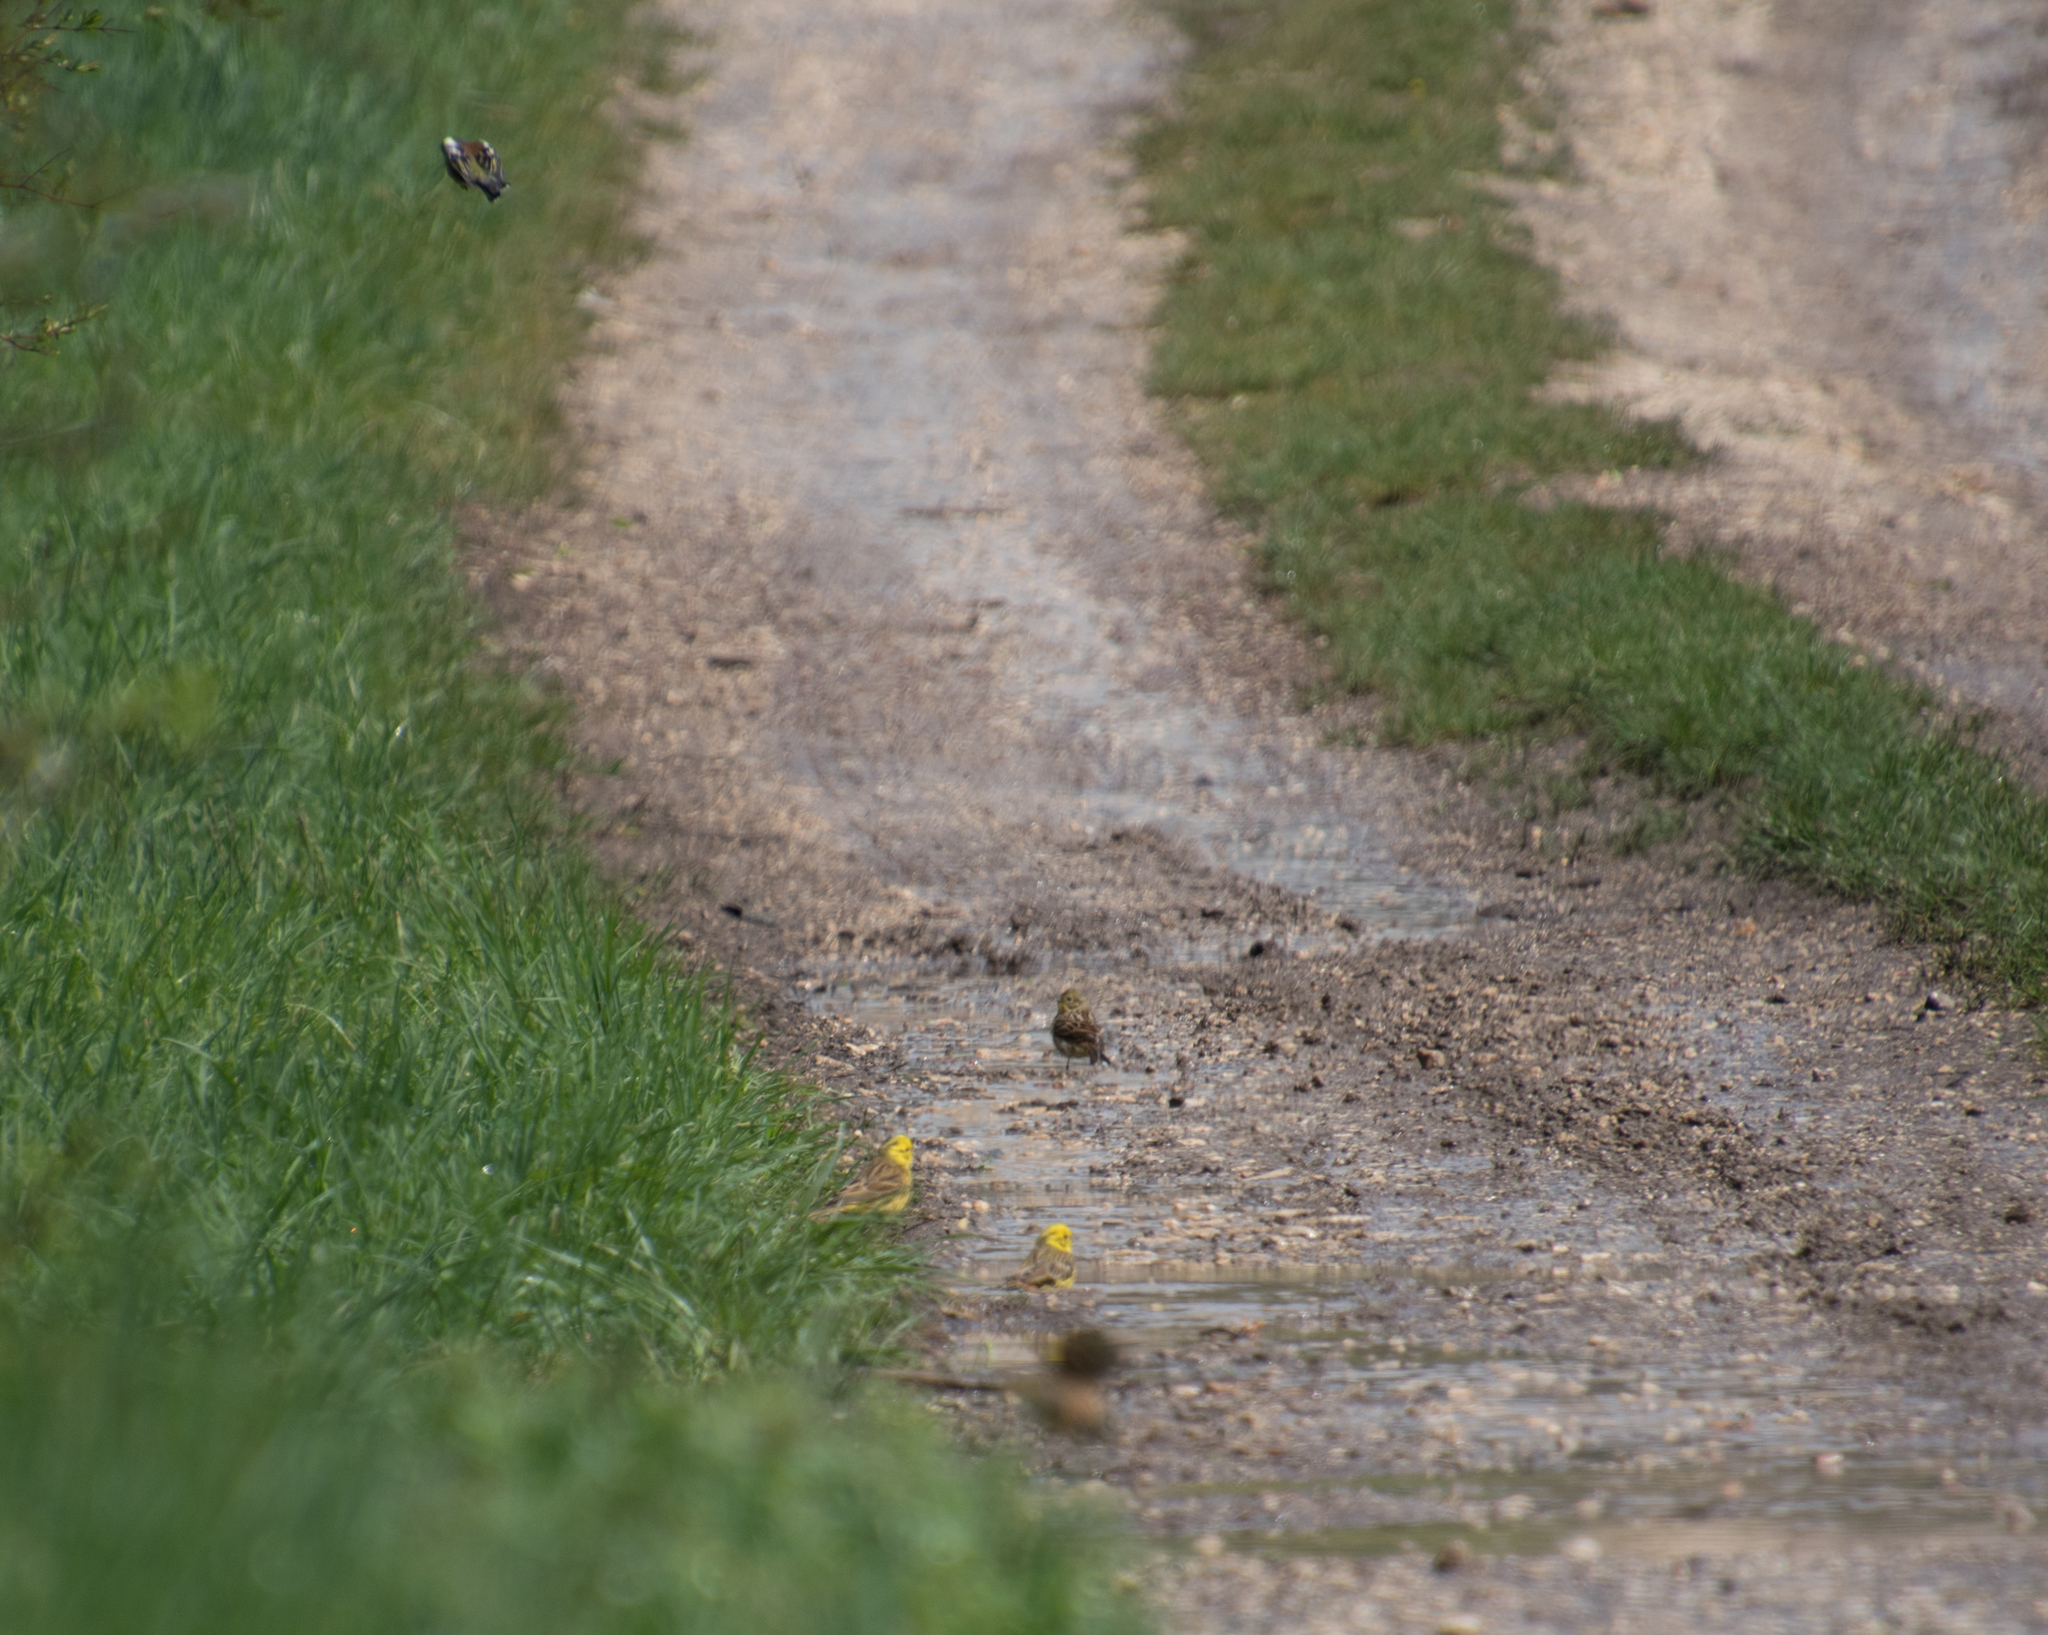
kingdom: Animalia
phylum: Chordata
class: Aves
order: Passeriformes
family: Emberizidae
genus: Emberiza
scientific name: Emberiza citrinella
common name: Yellowhammer
